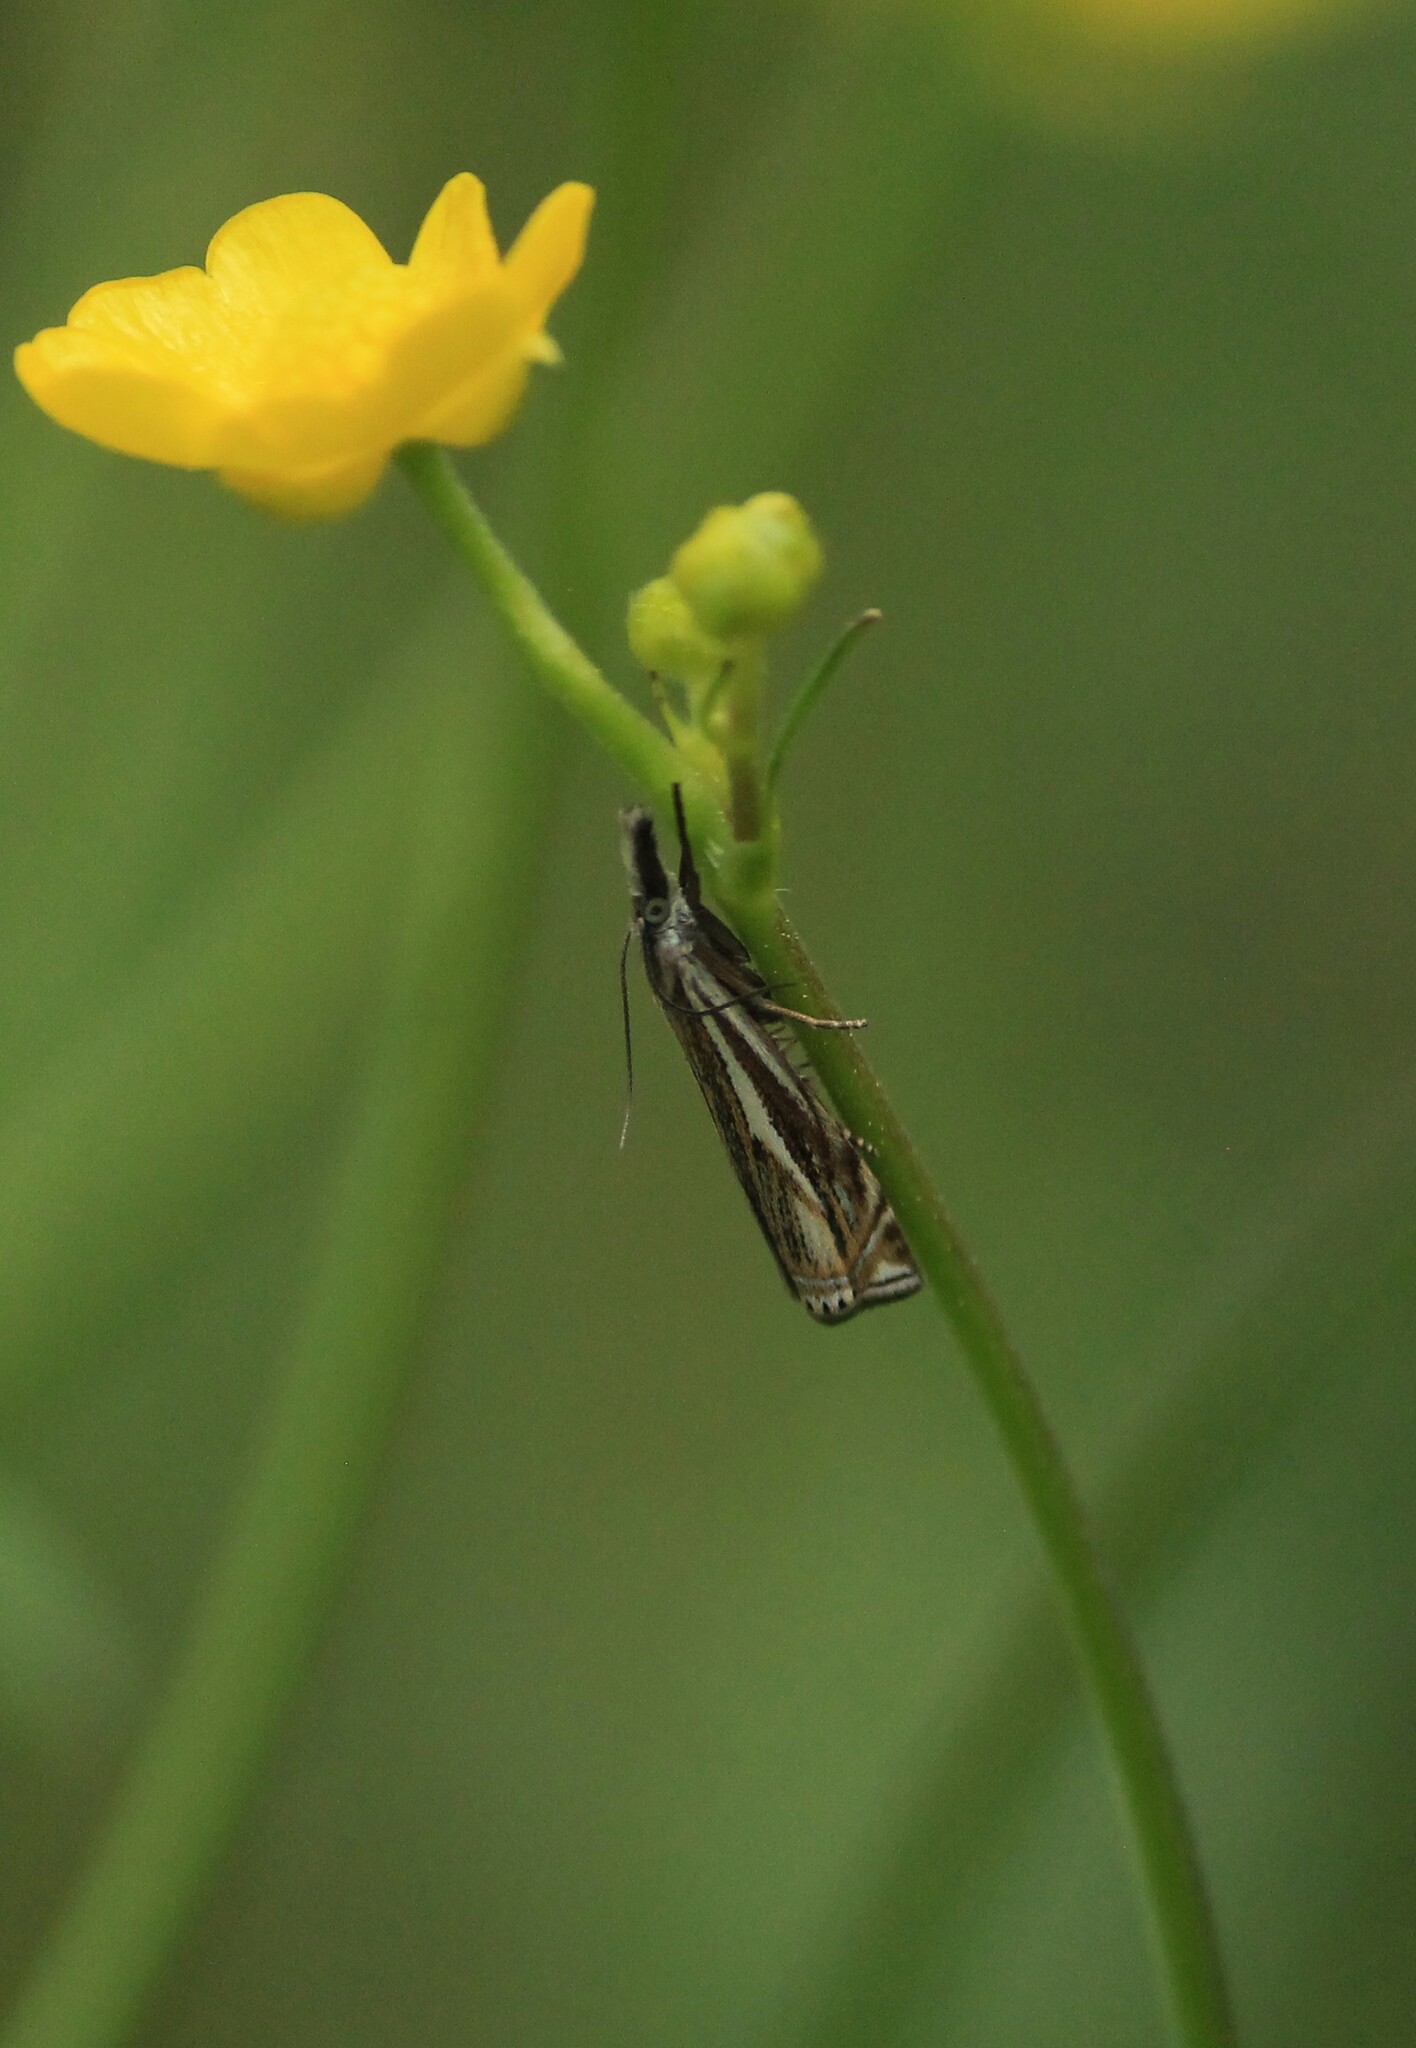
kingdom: Animalia
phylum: Arthropoda
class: Insecta
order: Lepidoptera
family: Crambidae
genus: Crambus
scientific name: Crambus nemorella
